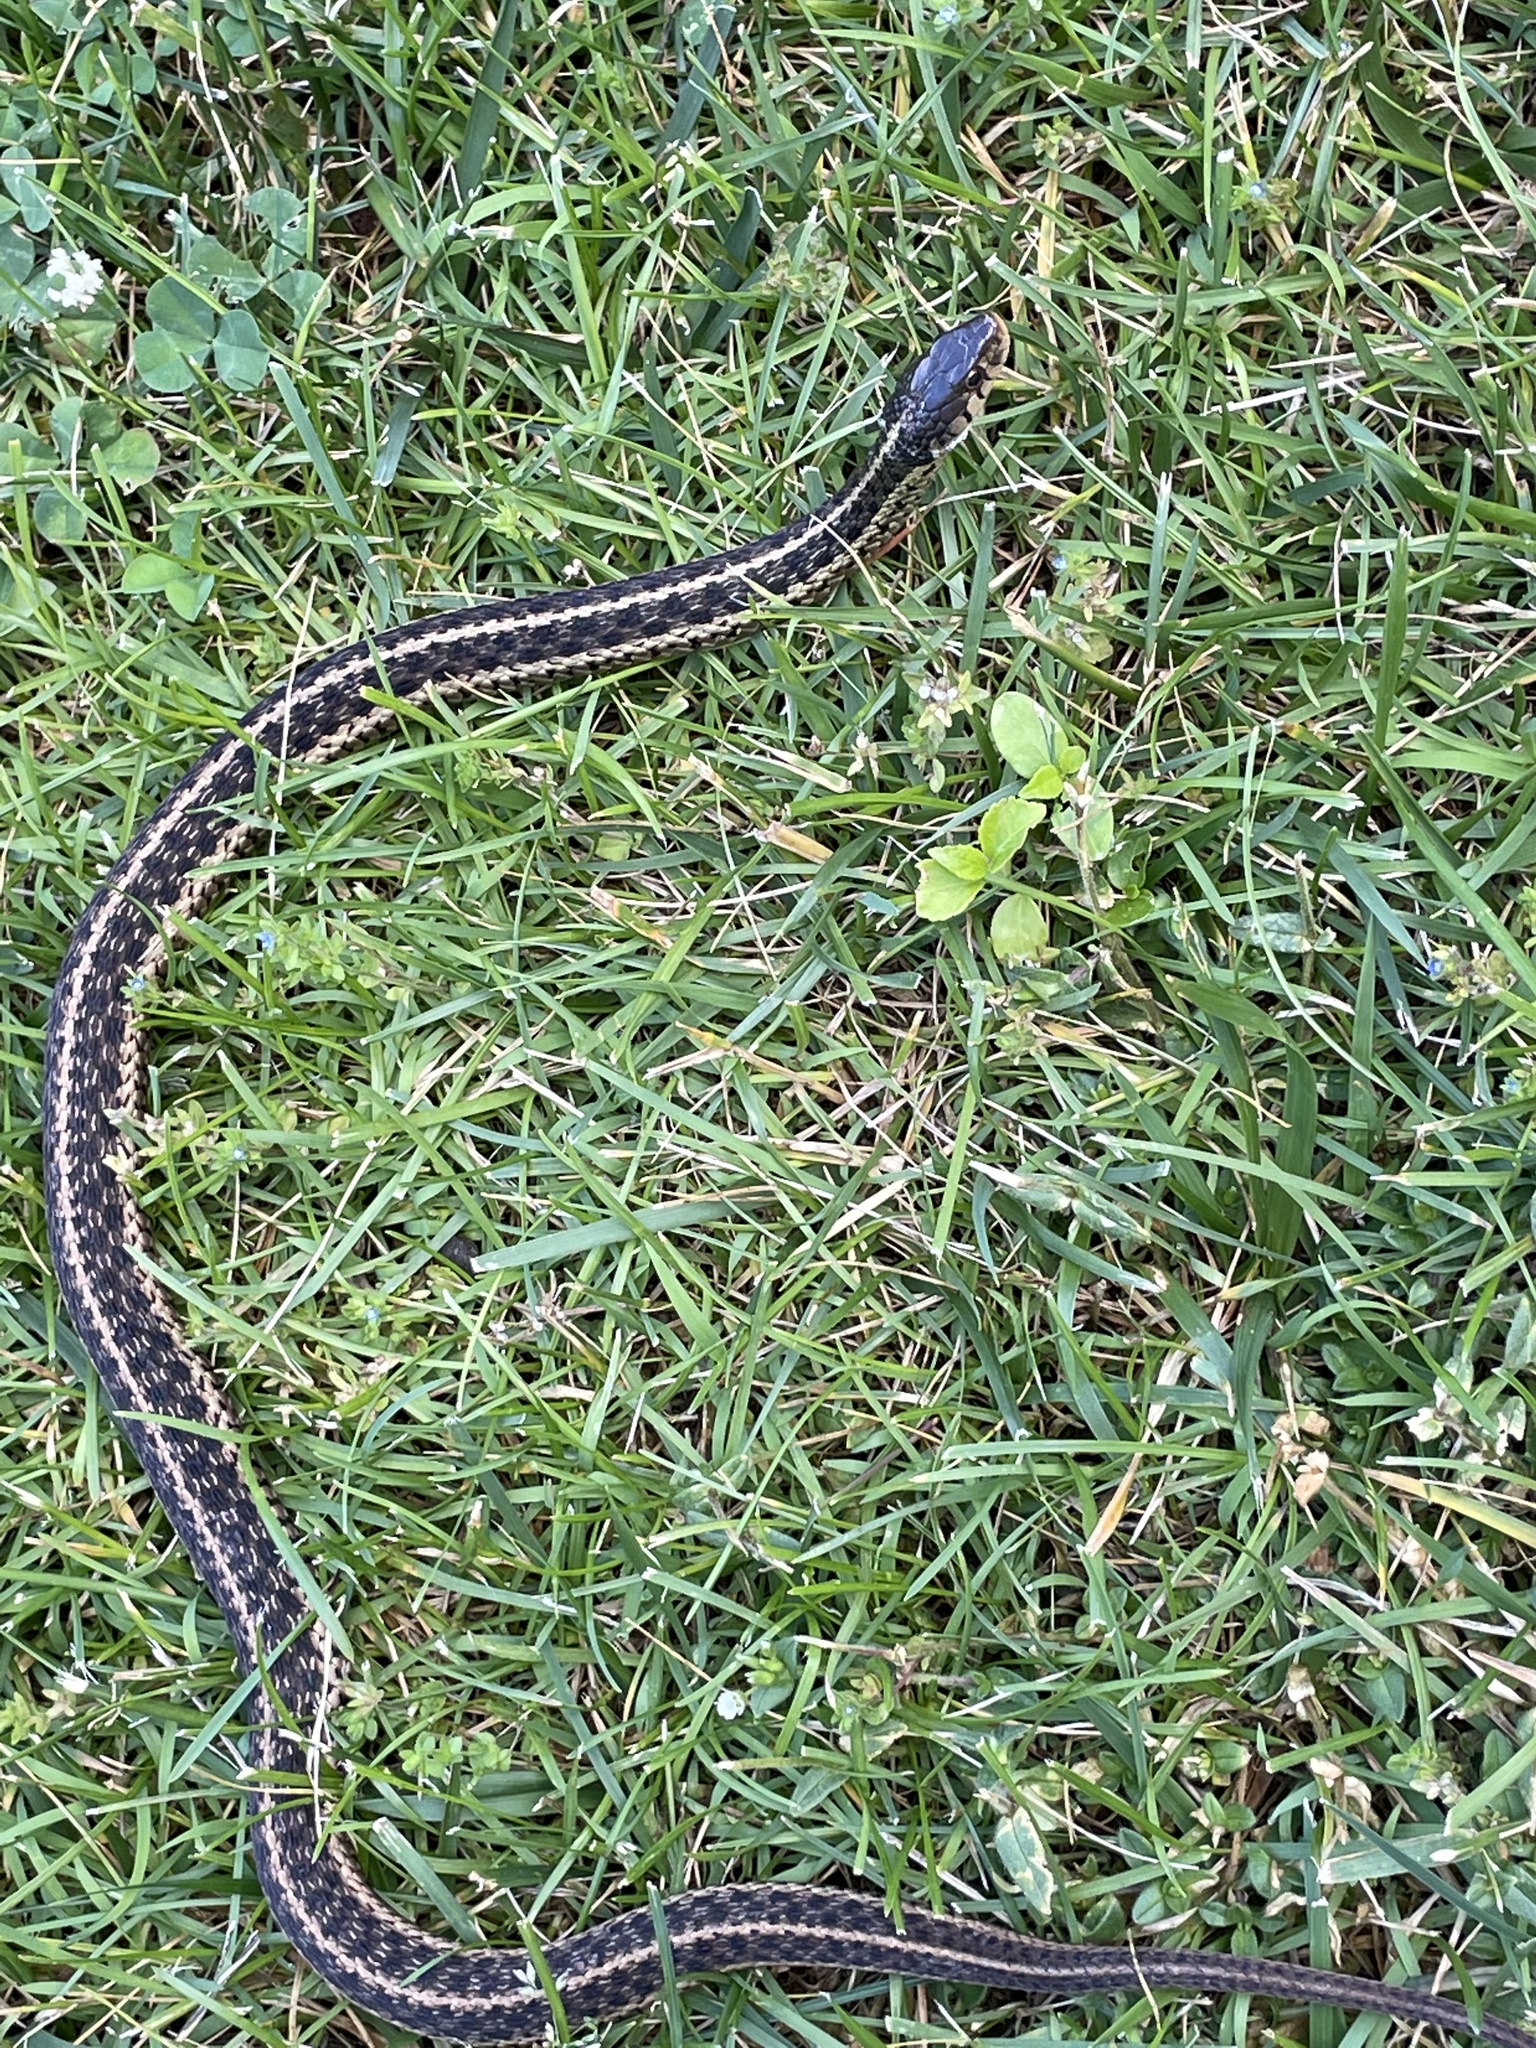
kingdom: Animalia
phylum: Chordata
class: Squamata
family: Colubridae
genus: Thamnophis
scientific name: Thamnophis sirtalis
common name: Common garter snake
